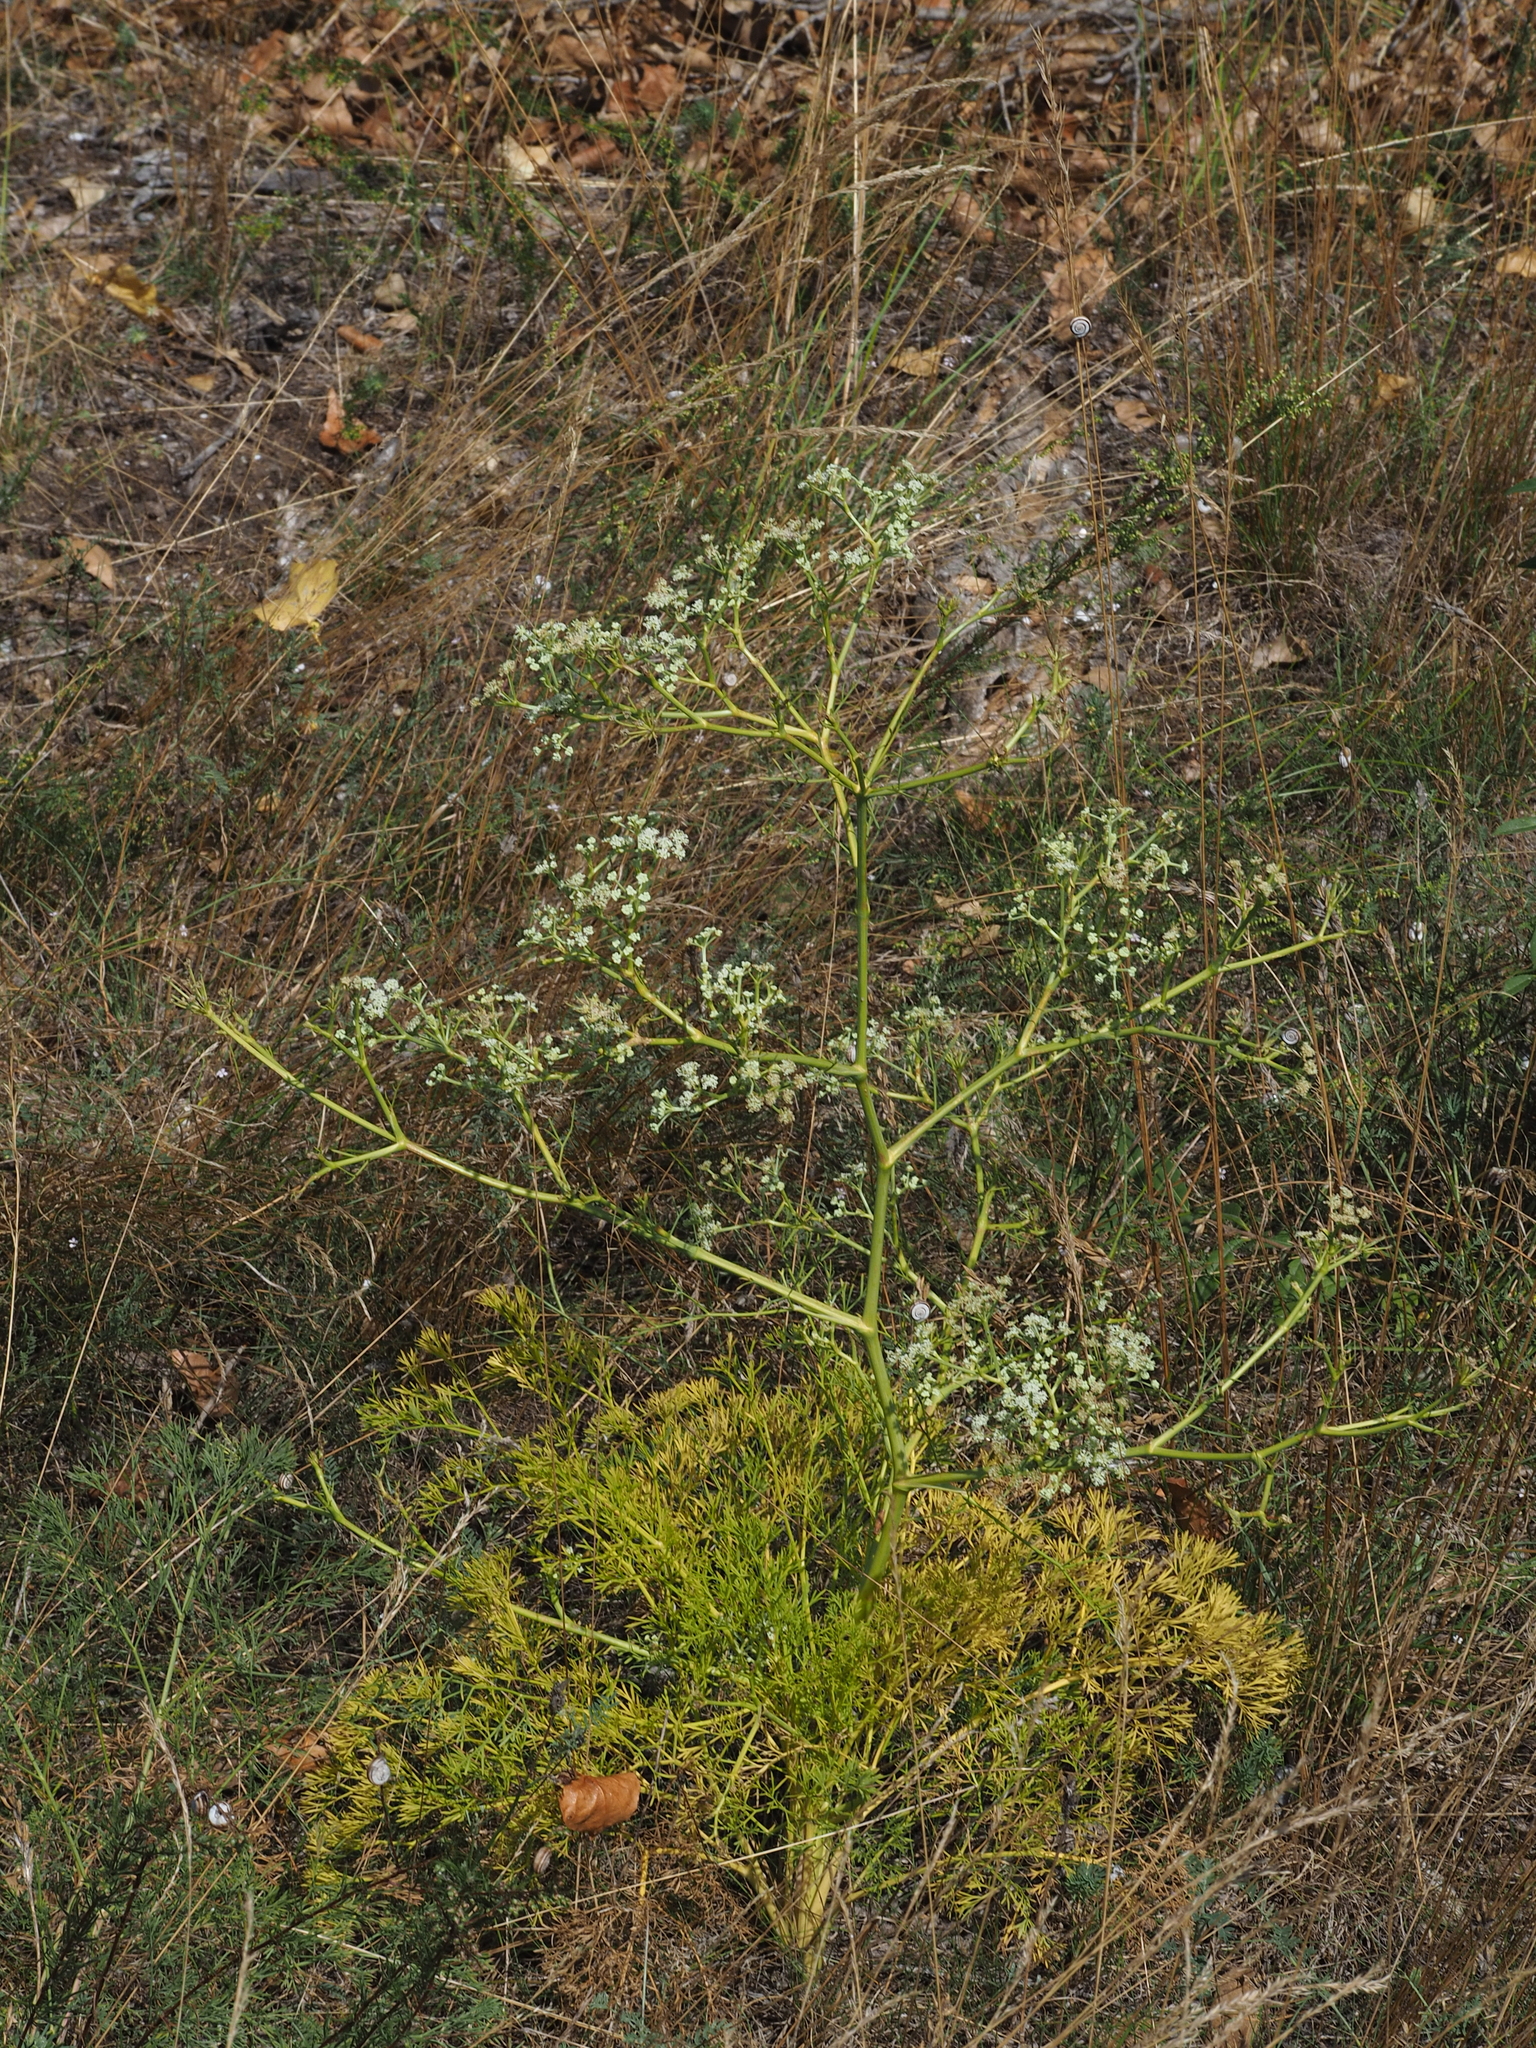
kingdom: Plantae
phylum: Tracheophyta
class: Magnoliopsida
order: Apiales
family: Apiaceae
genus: Seseli
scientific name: Seseli campestre
